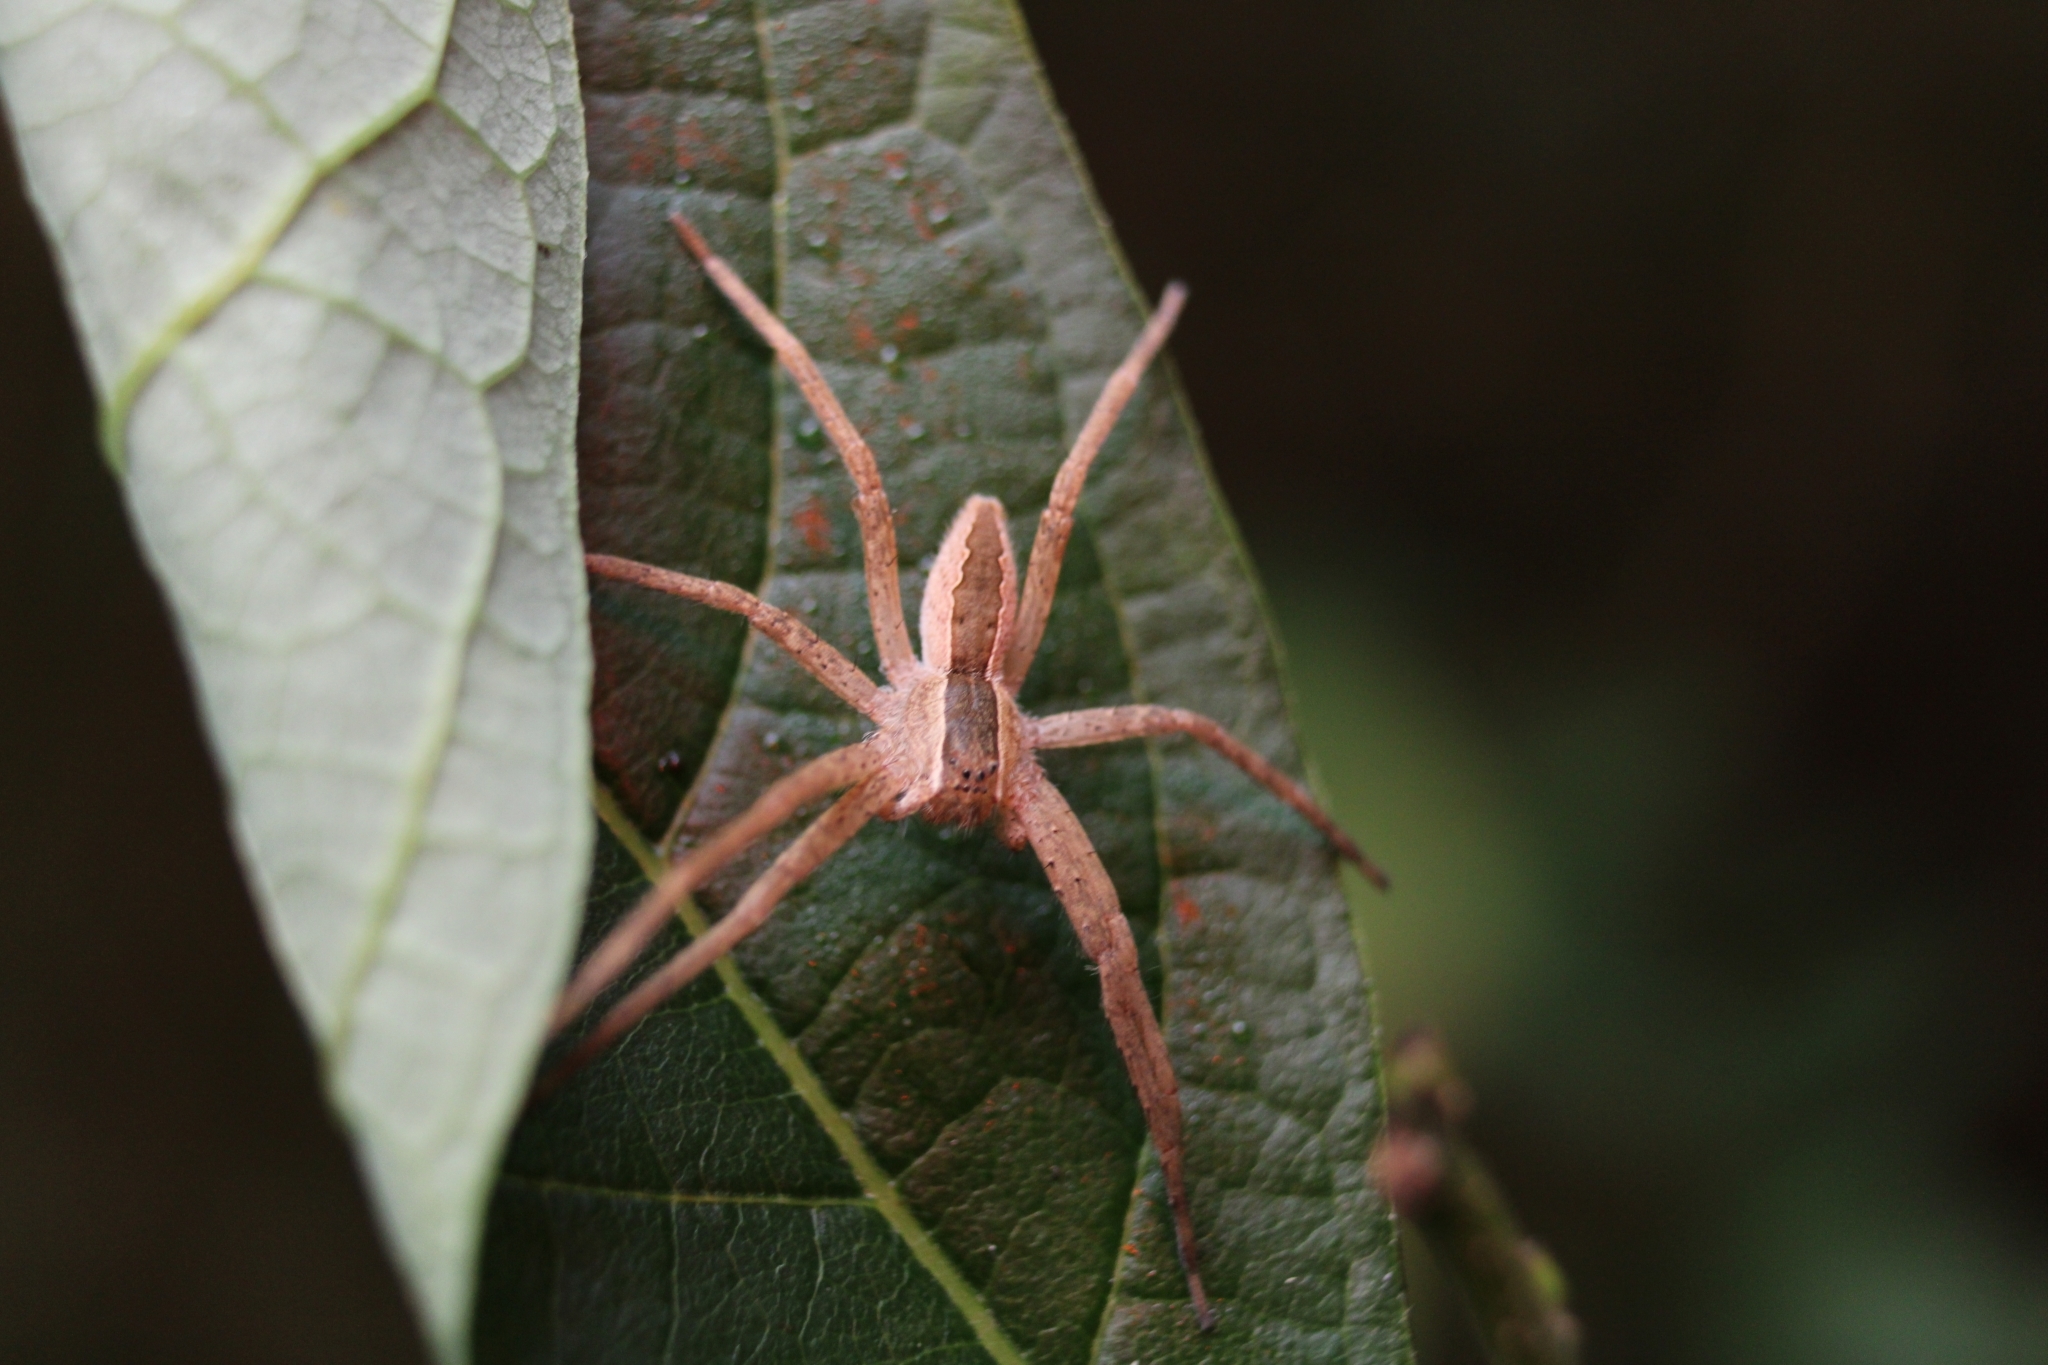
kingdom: Animalia
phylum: Arthropoda
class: Arachnida
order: Araneae
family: Pisauridae
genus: Pisaurina
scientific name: Pisaurina mira
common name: American nursery web spider
